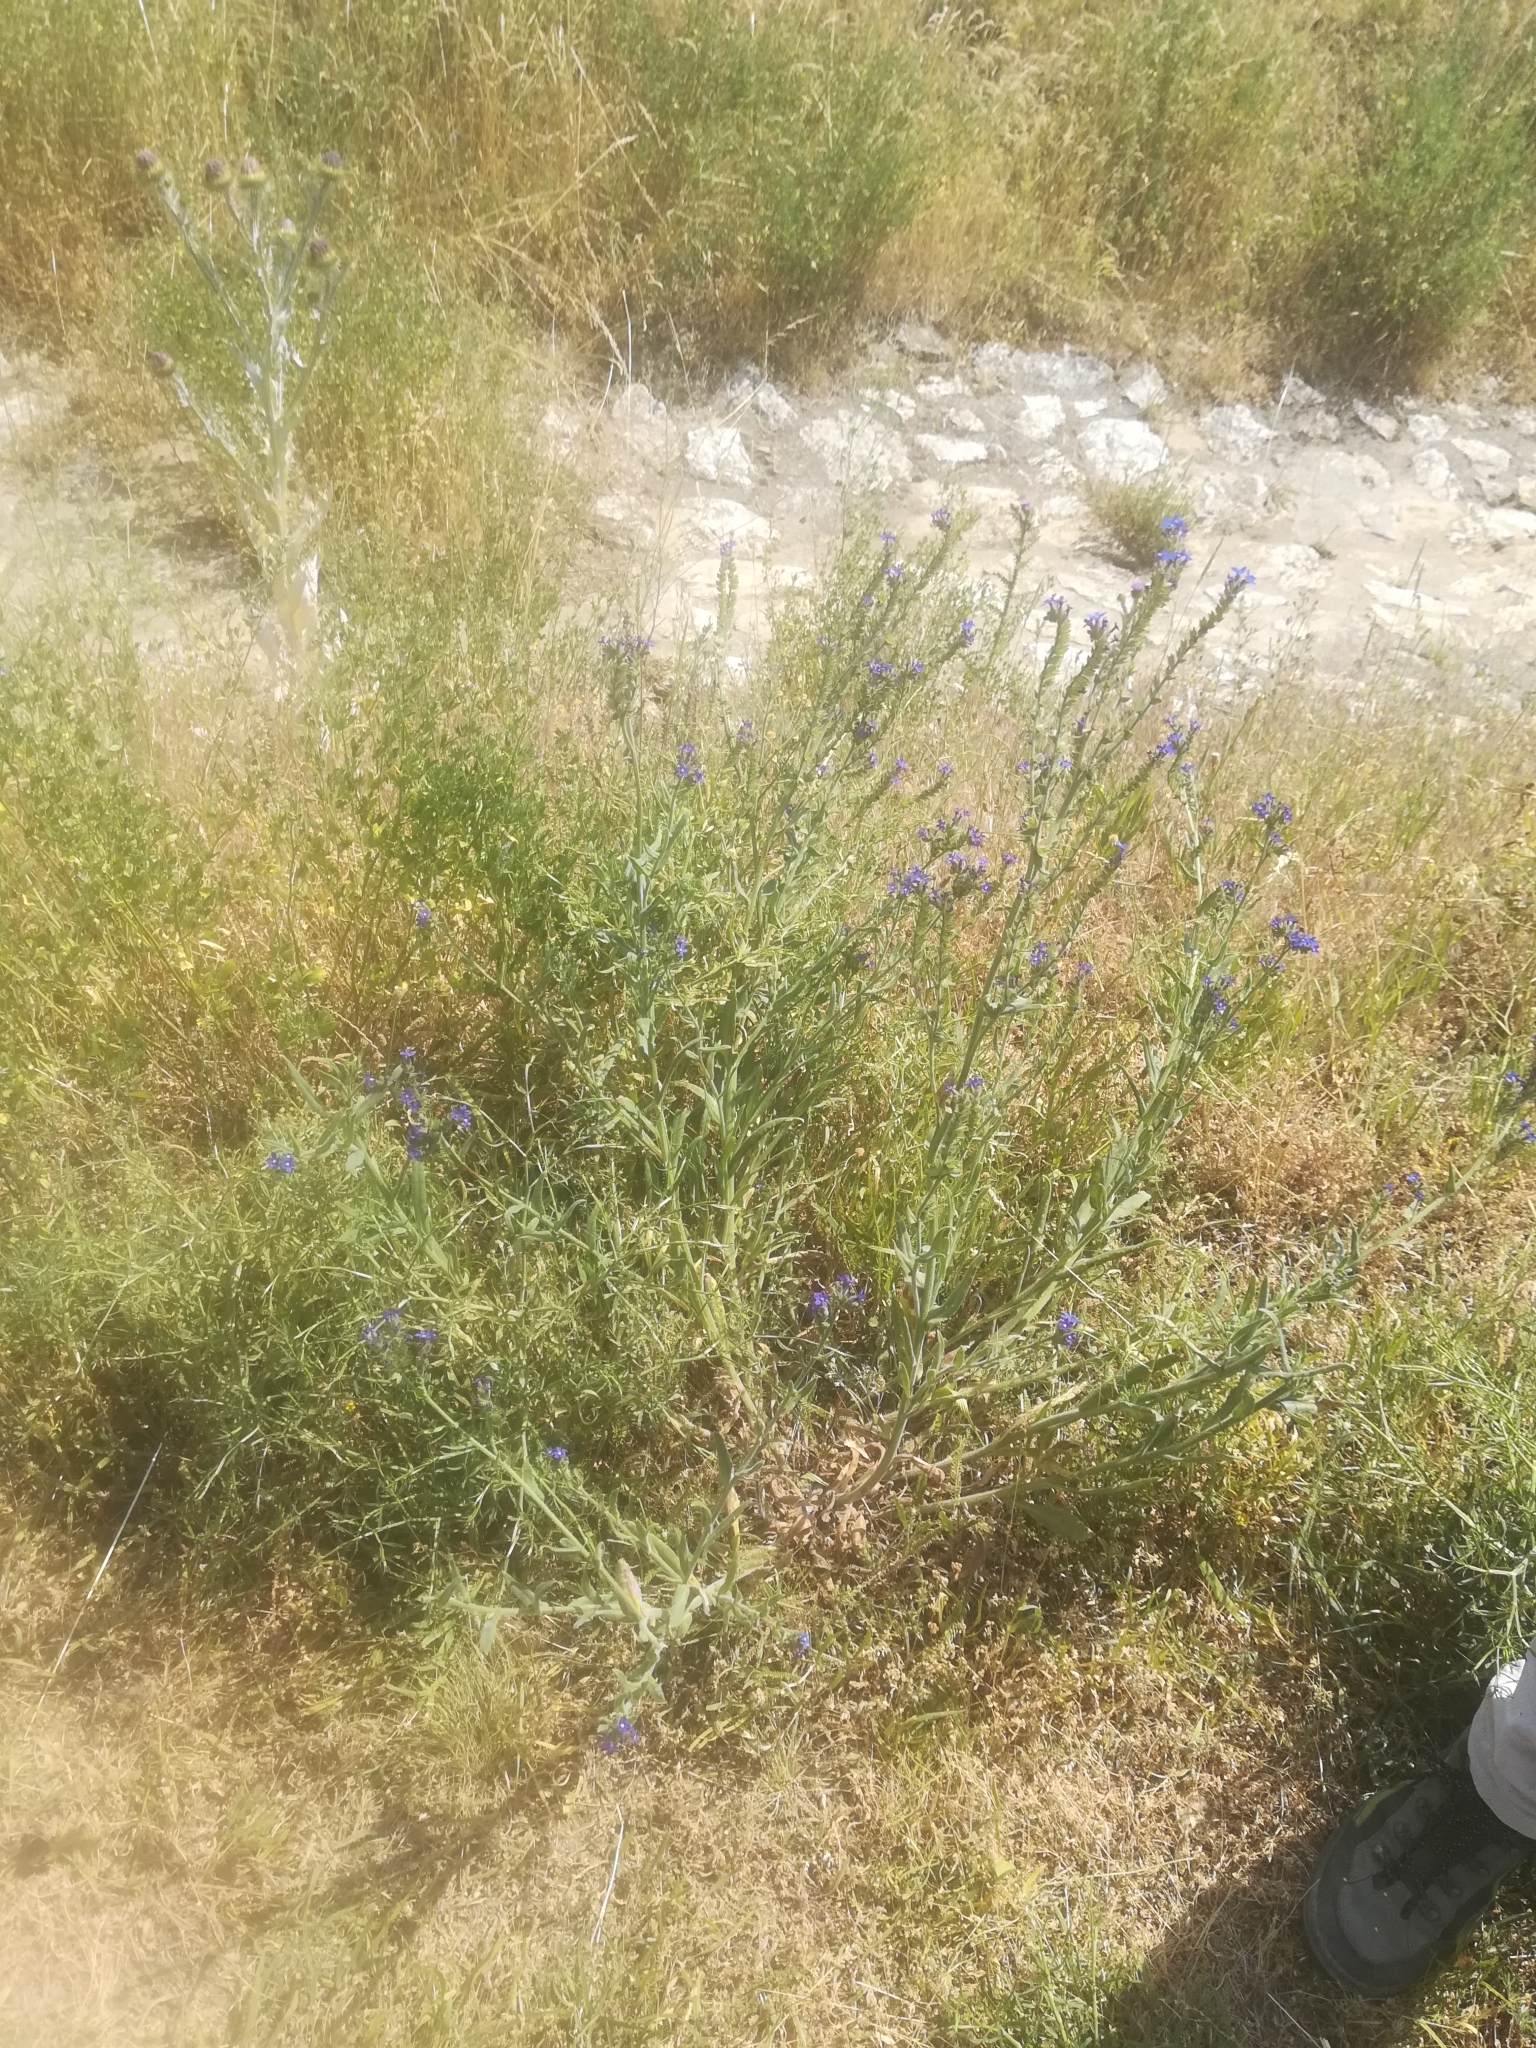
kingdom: Plantae
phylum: Tracheophyta
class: Magnoliopsida
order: Boraginales
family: Boraginaceae
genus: Anchusa
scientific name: Anchusa officinalis
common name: Alkanet
